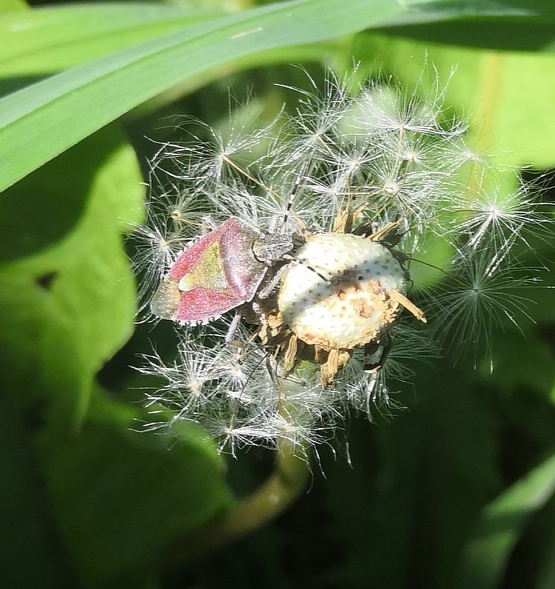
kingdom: Animalia
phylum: Arthropoda
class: Insecta
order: Hemiptera
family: Pentatomidae
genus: Dolycoris
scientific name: Dolycoris baccarum
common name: Sloe bug
